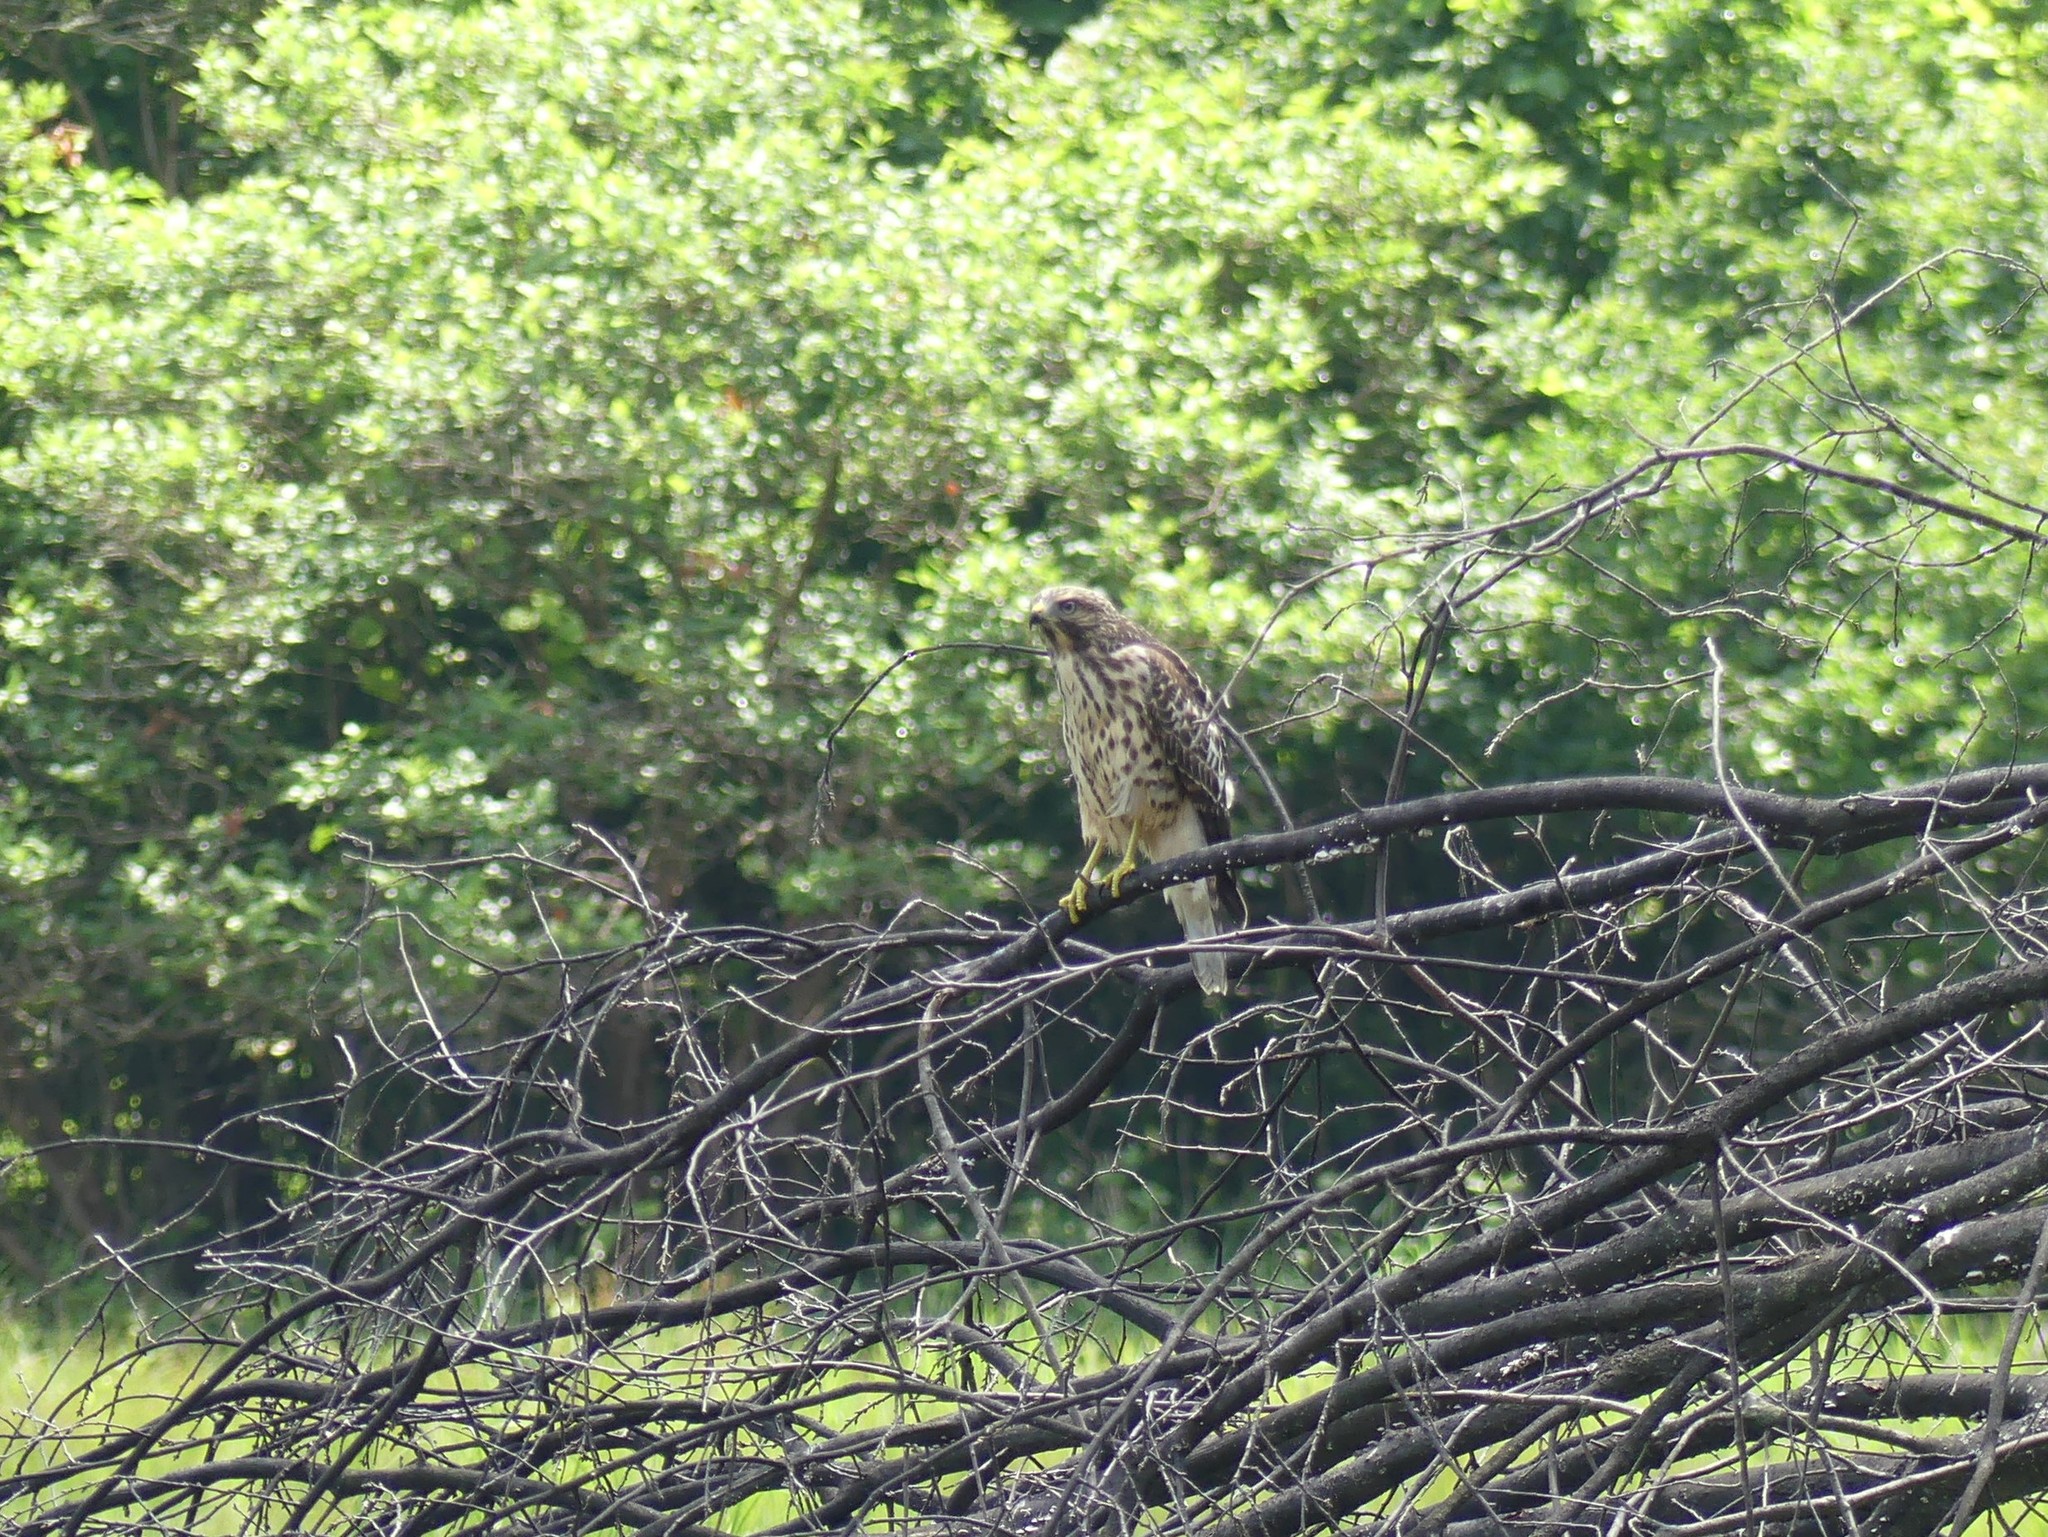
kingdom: Animalia
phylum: Chordata
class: Aves
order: Accipitriformes
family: Accipitridae
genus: Buteo
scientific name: Buteo lineatus
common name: Red-shouldered hawk
